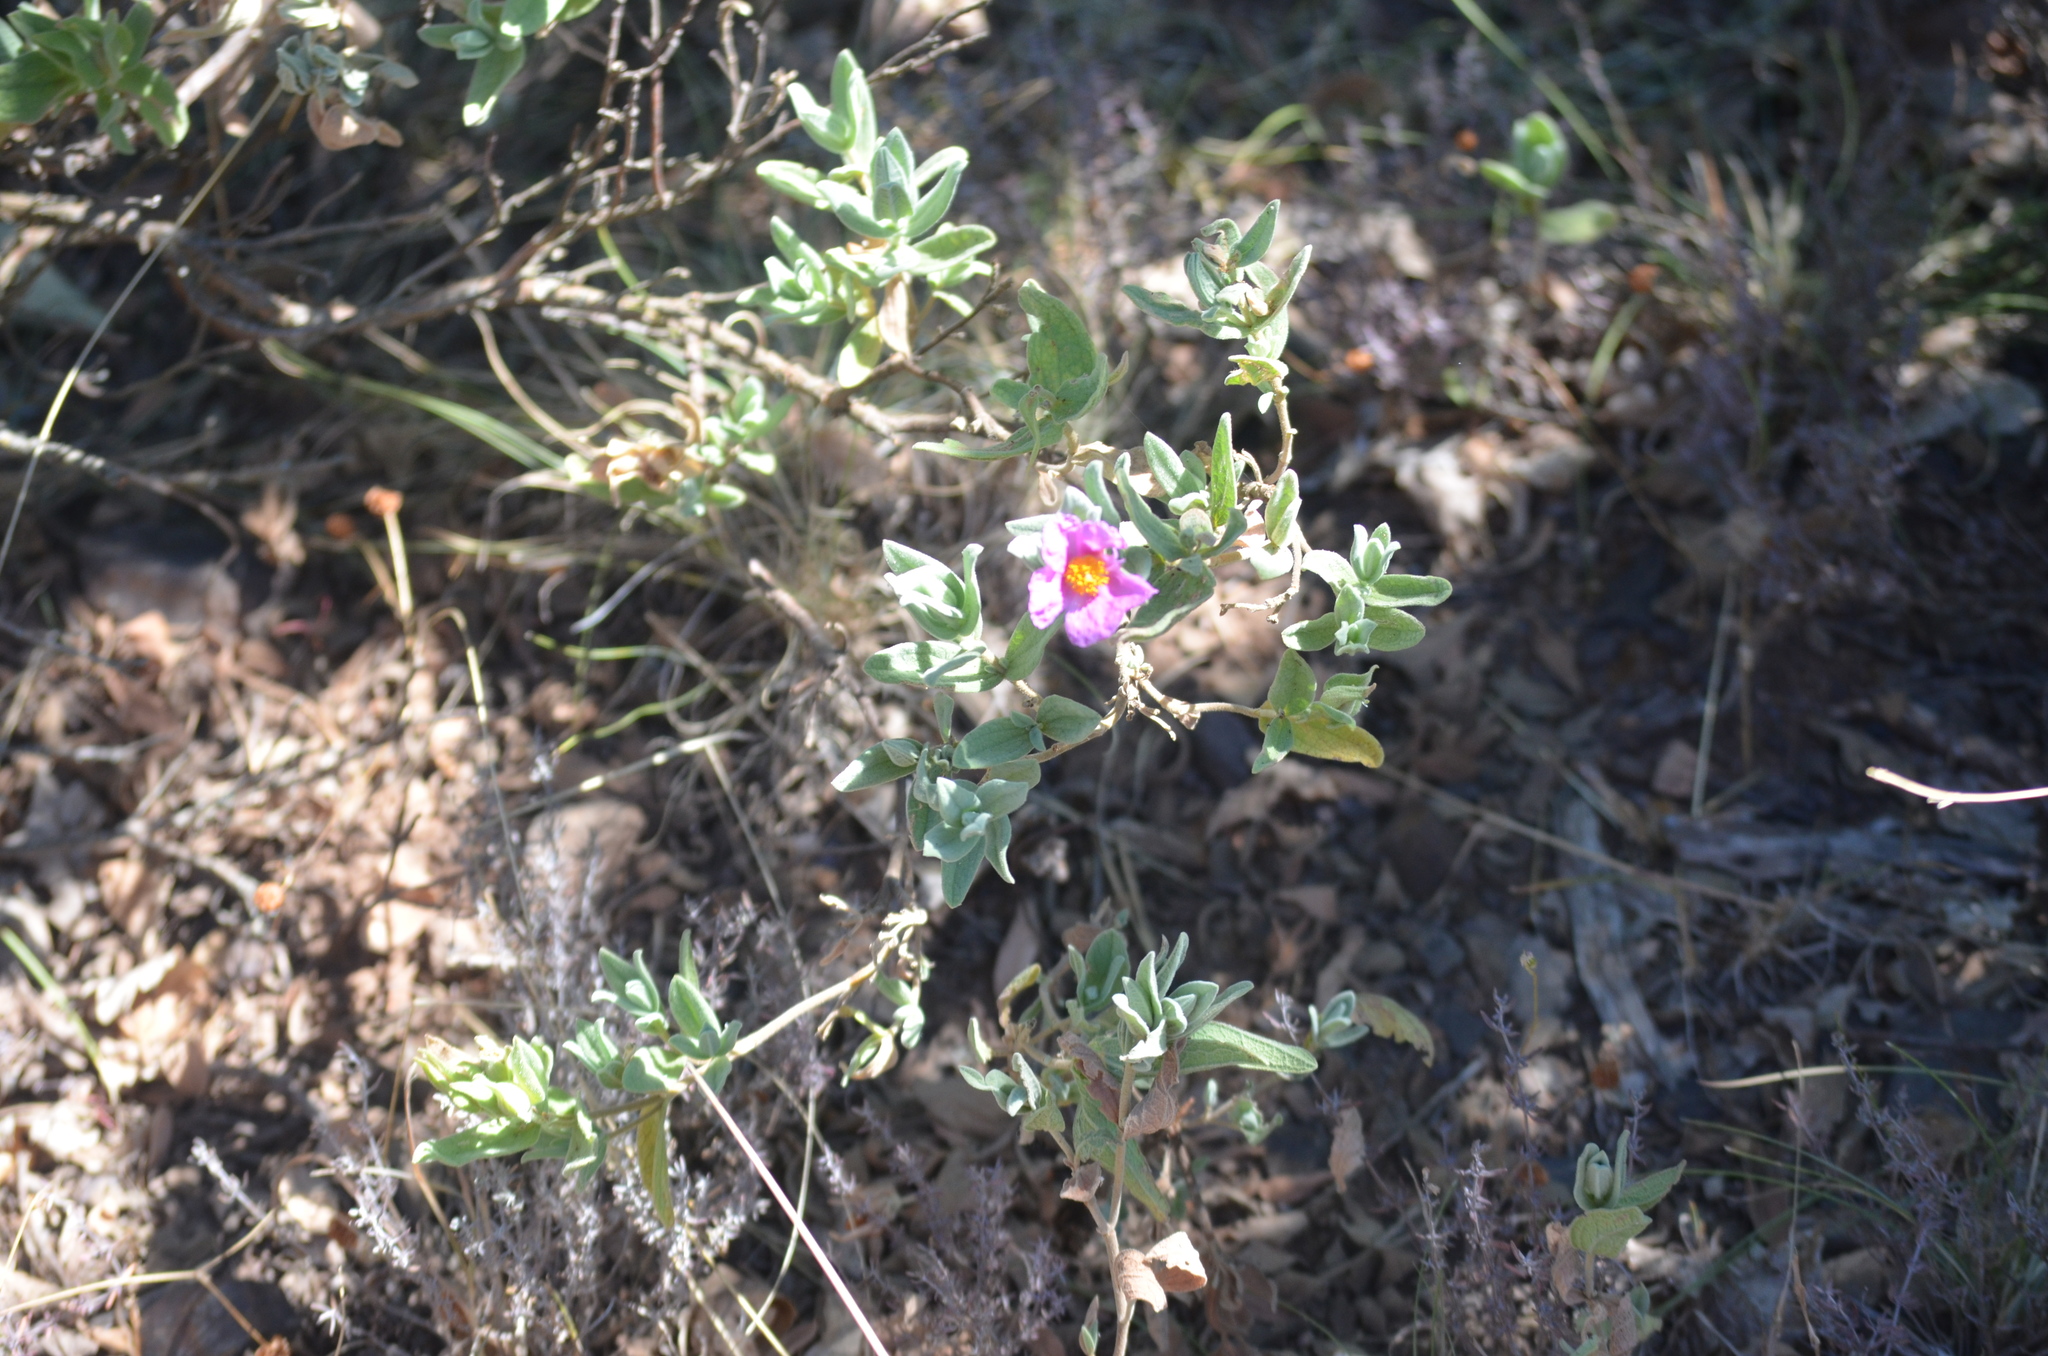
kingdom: Plantae
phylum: Tracheophyta
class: Magnoliopsida
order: Malvales
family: Cistaceae
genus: Cistus
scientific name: Cistus albidus
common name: White-leaf rock-rose
